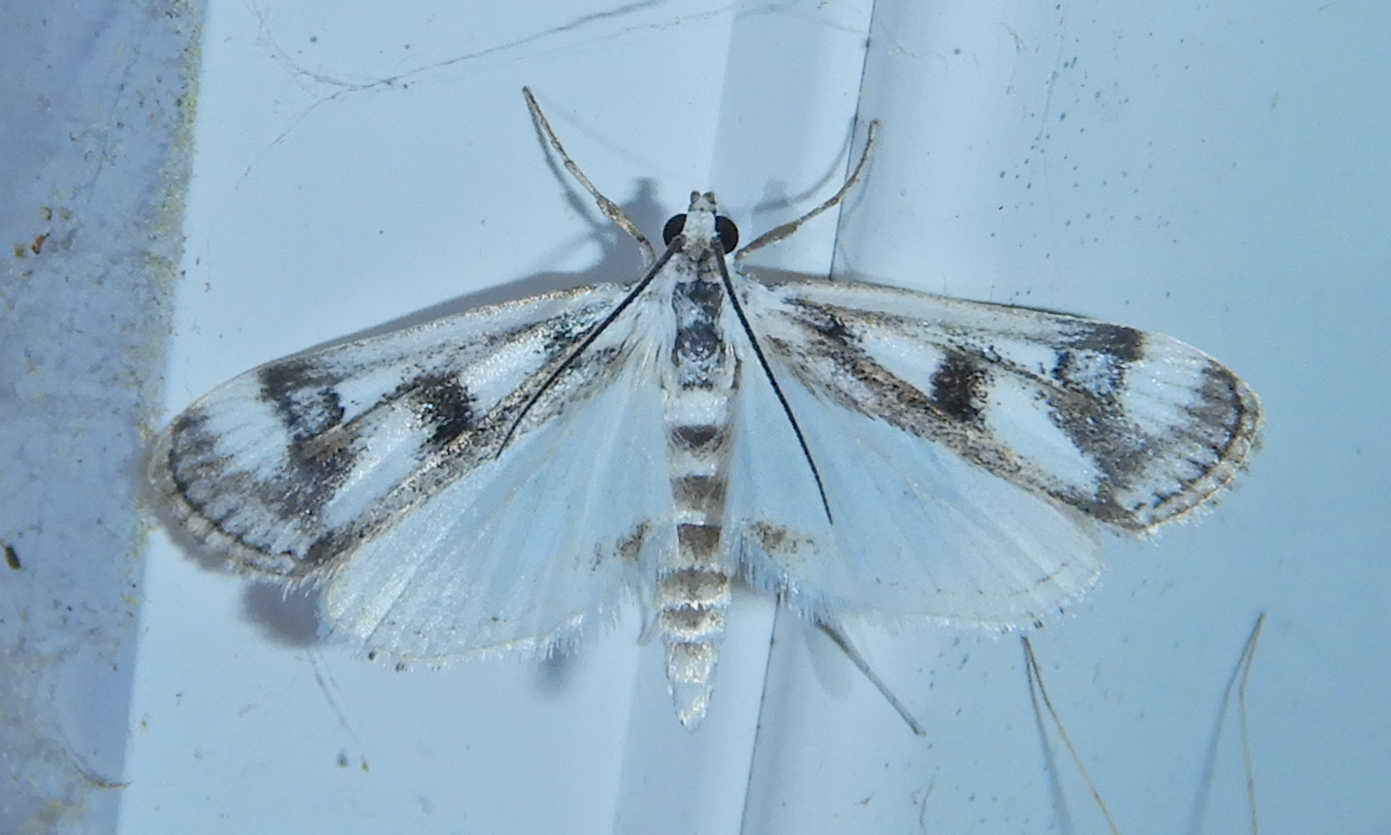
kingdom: Animalia
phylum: Arthropoda
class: Insecta
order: Lepidoptera
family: Crambidae
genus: Parapoynx
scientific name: Parapoynx maculalis
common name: Polymorphic pondweed moth
